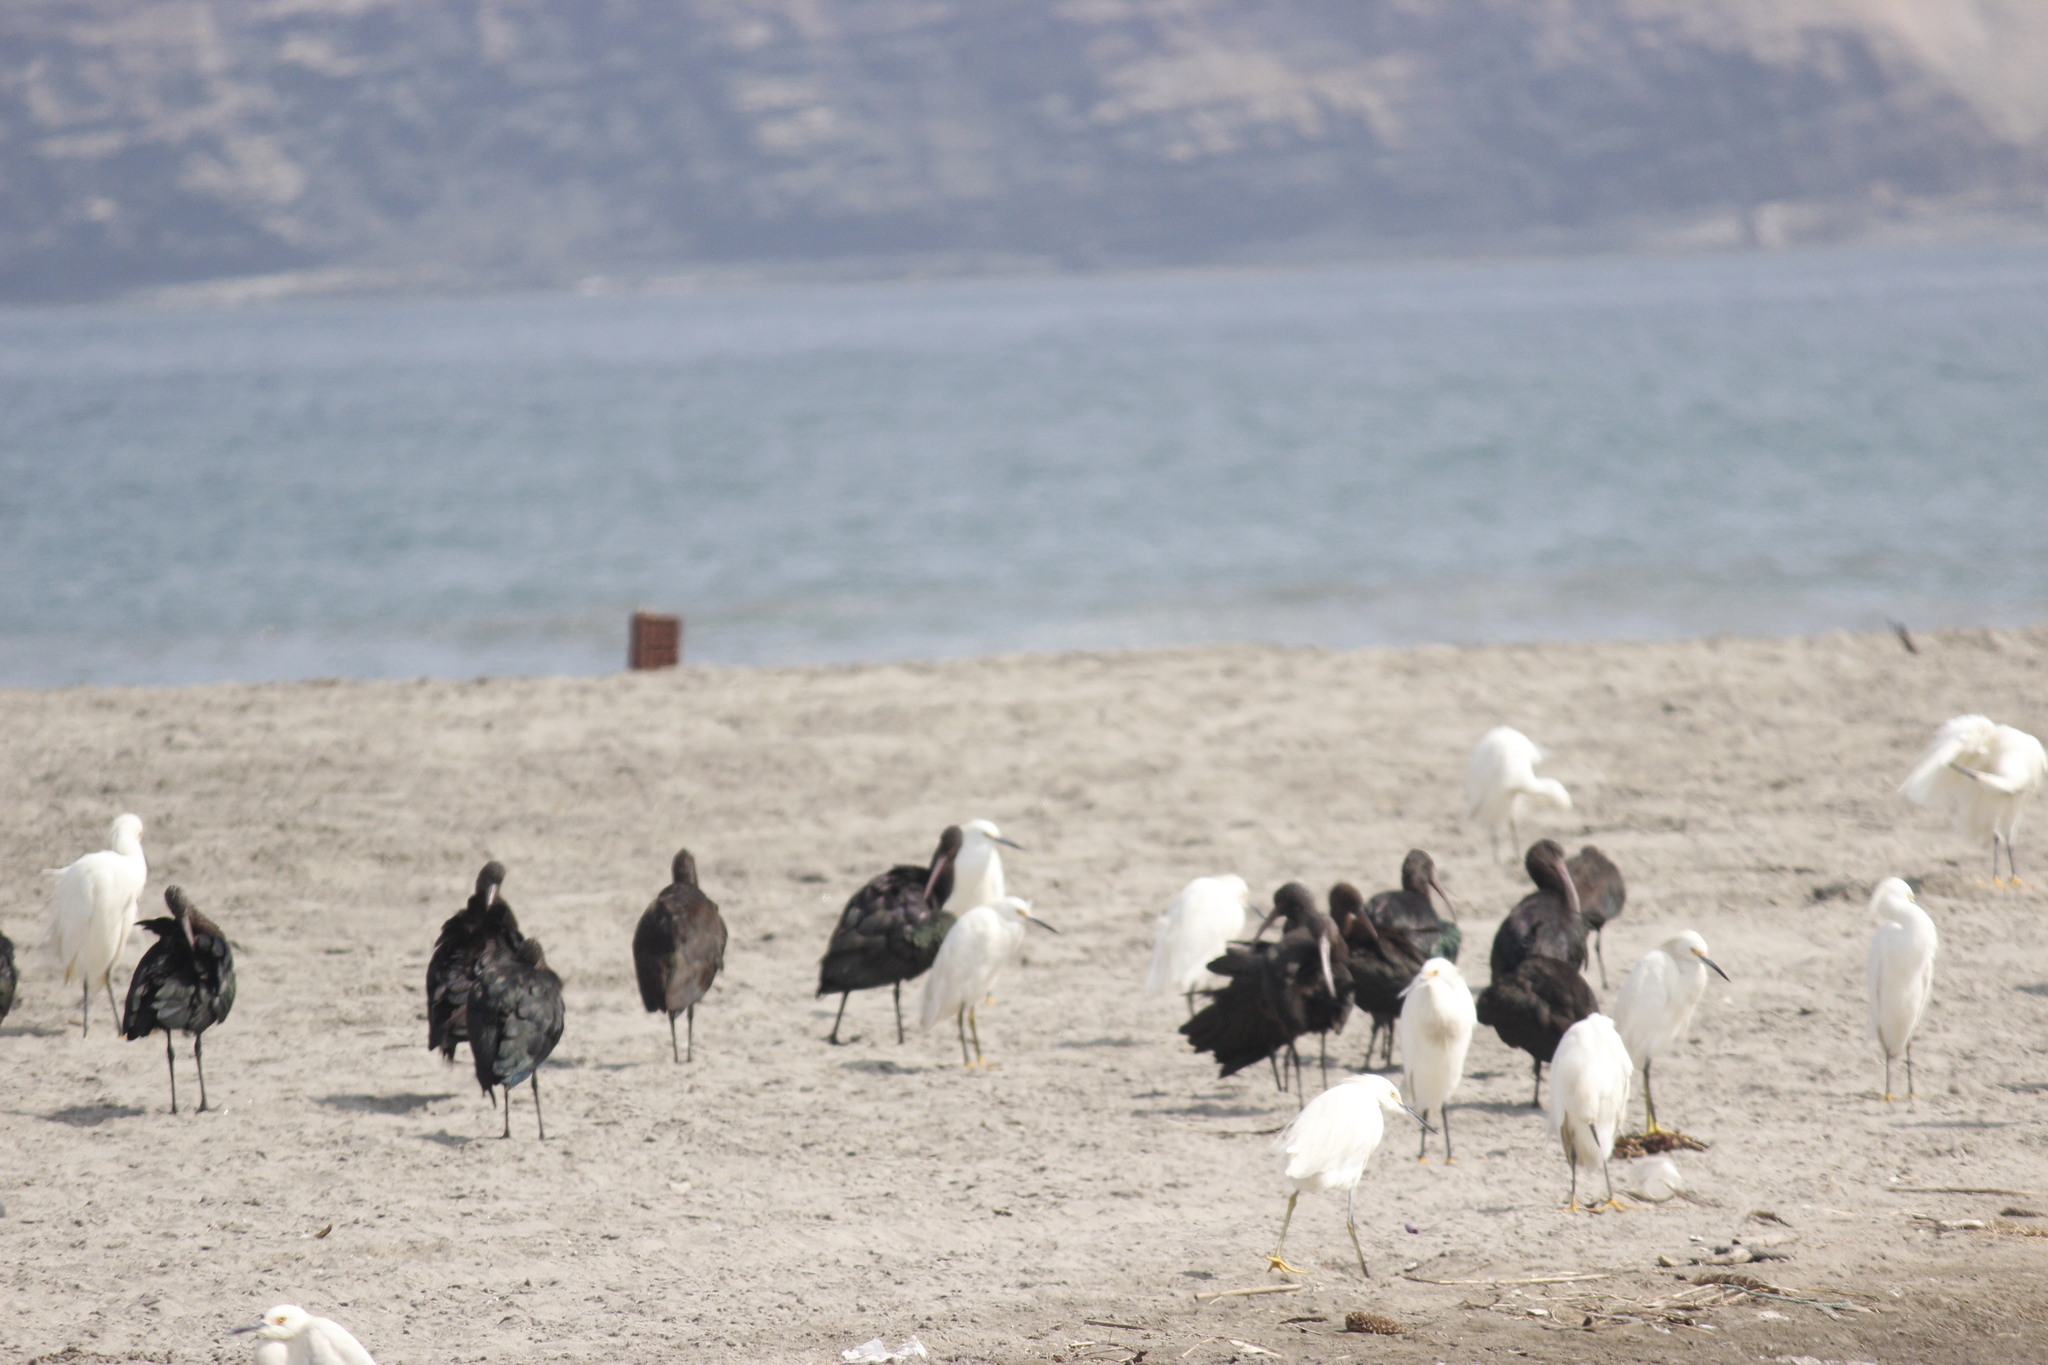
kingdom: Animalia
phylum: Chordata
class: Aves
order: Pelecaniformes
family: Threskiornithidae
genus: Plegadis
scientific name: Plegadis ridgwayi
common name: Puna ibis
